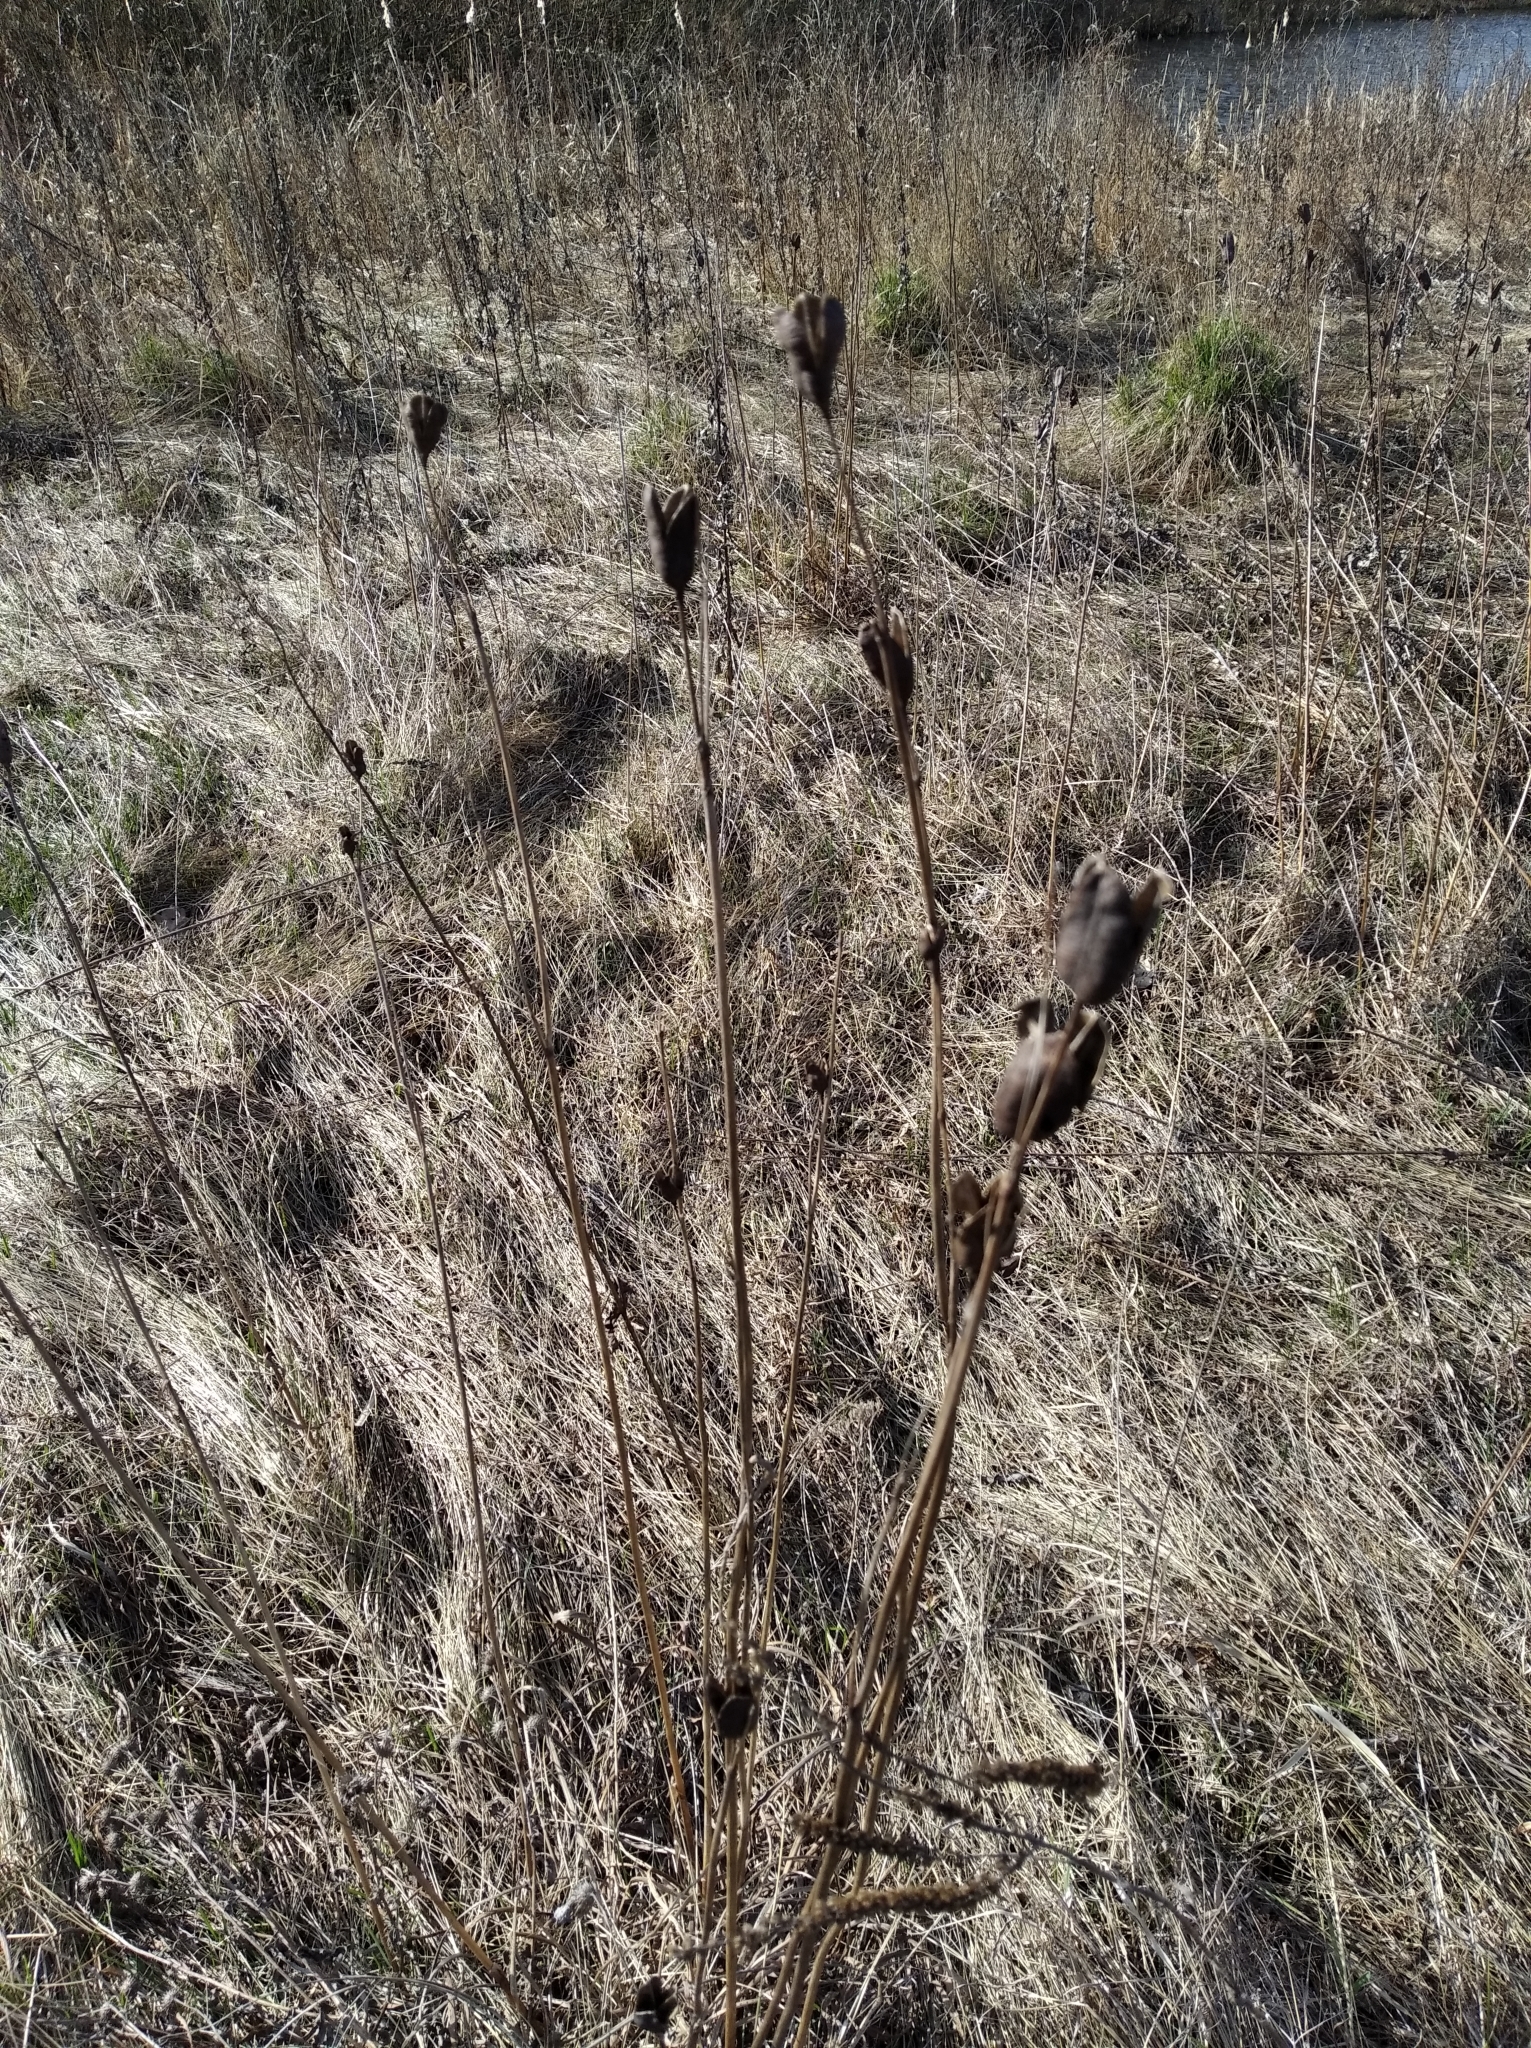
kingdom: Plantae
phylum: Tracheophyta
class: Liliopsida
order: Asparagales
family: Iridaceae
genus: Iris
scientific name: Iris sibirica
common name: Siberian iris
